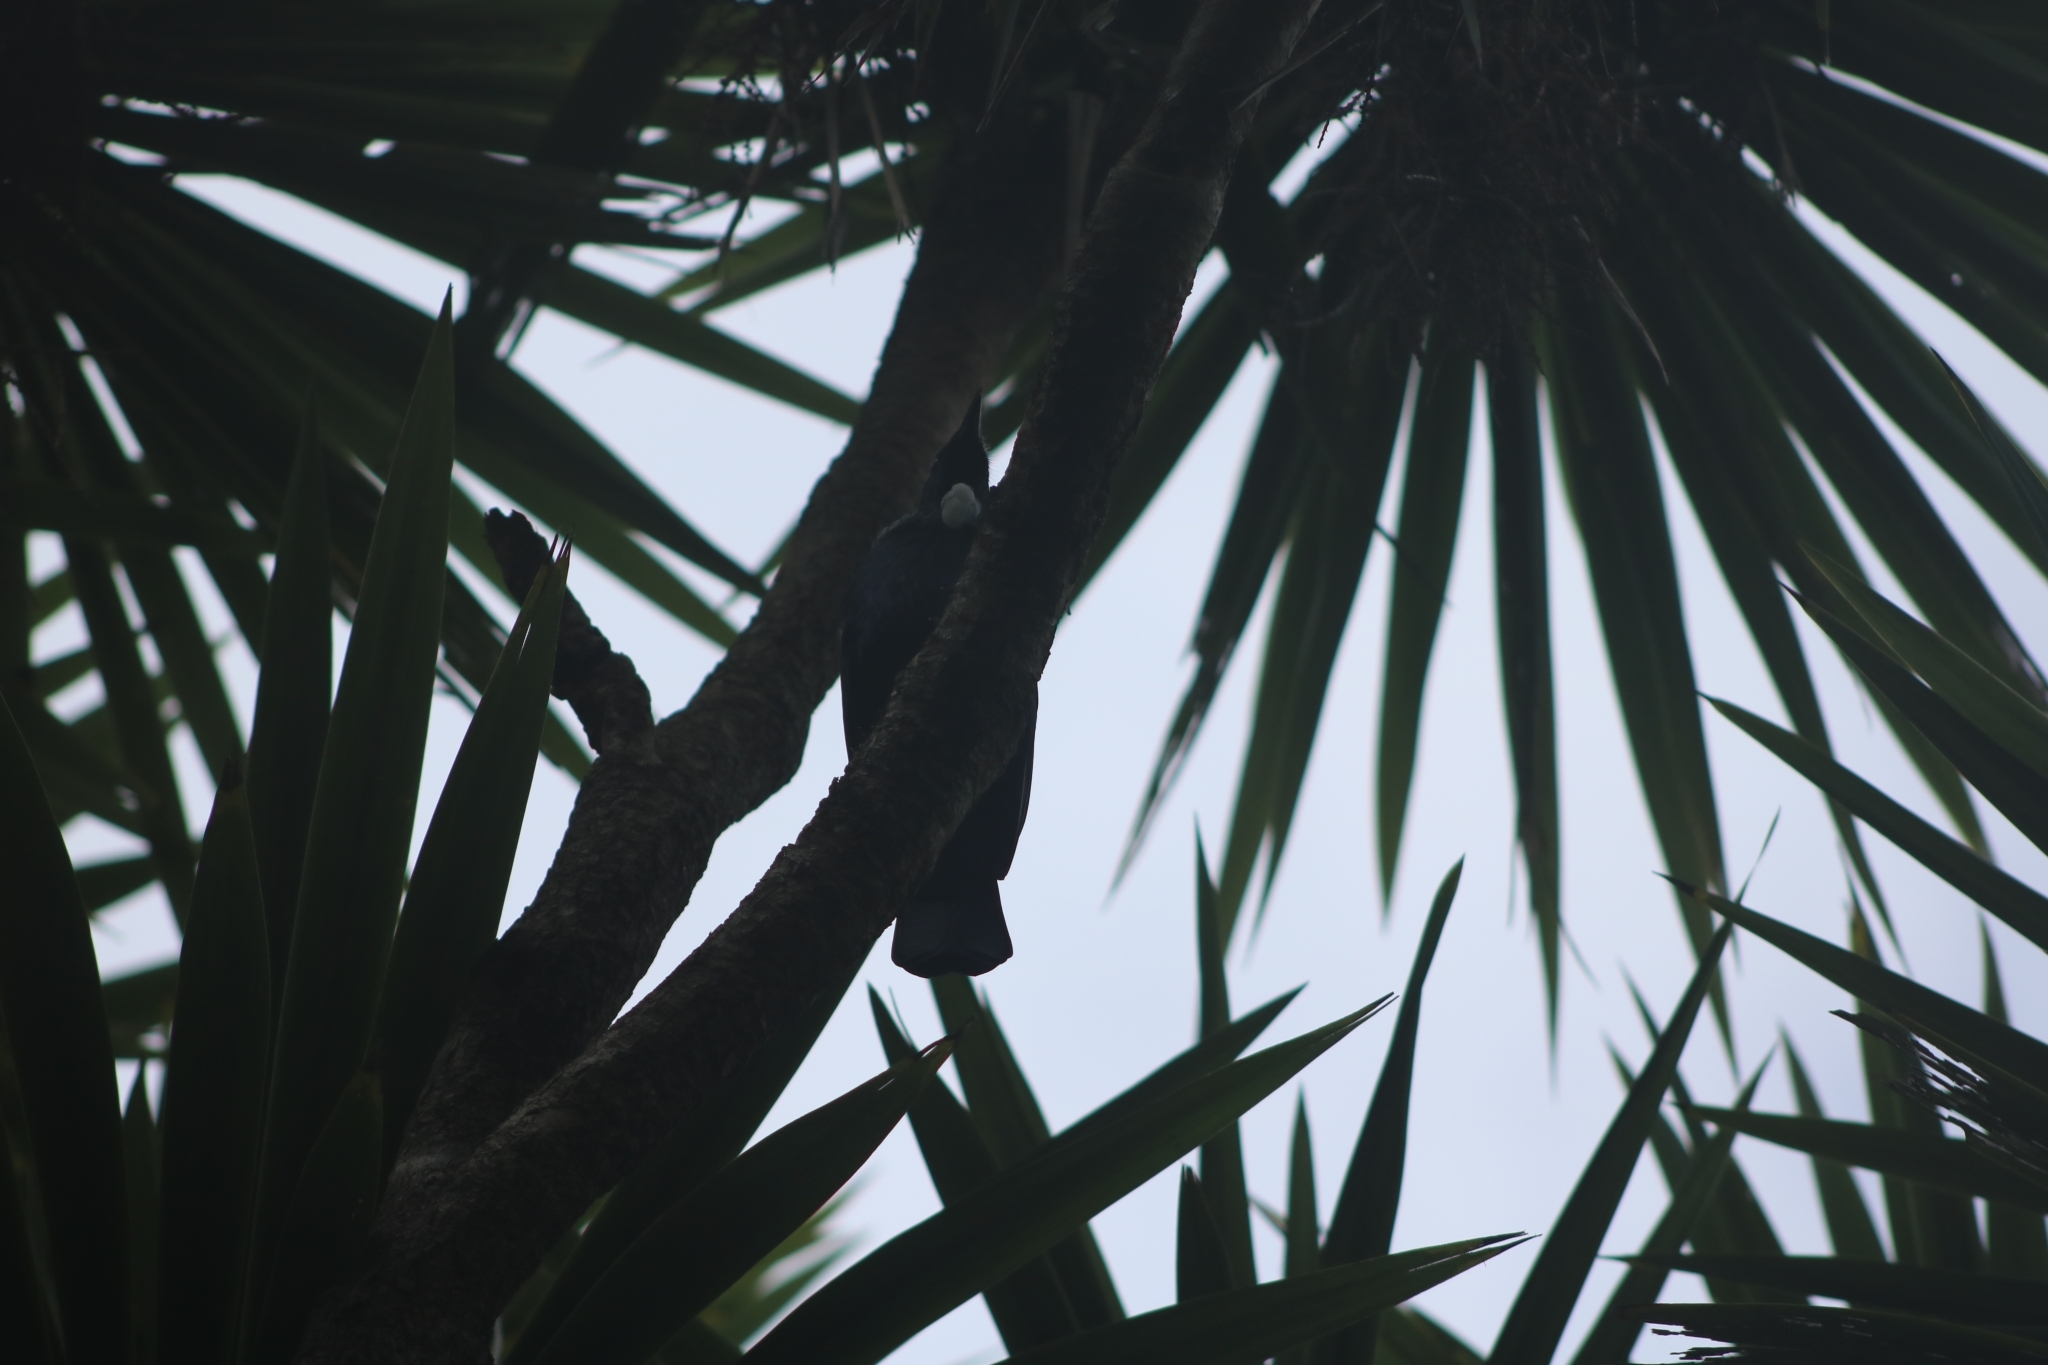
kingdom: Animalia
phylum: Chordata
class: Aves
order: Passeriformes
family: Meliphagidae
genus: Prosthemadera
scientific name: Prosthemadera novaeseelandiae
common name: Tui
